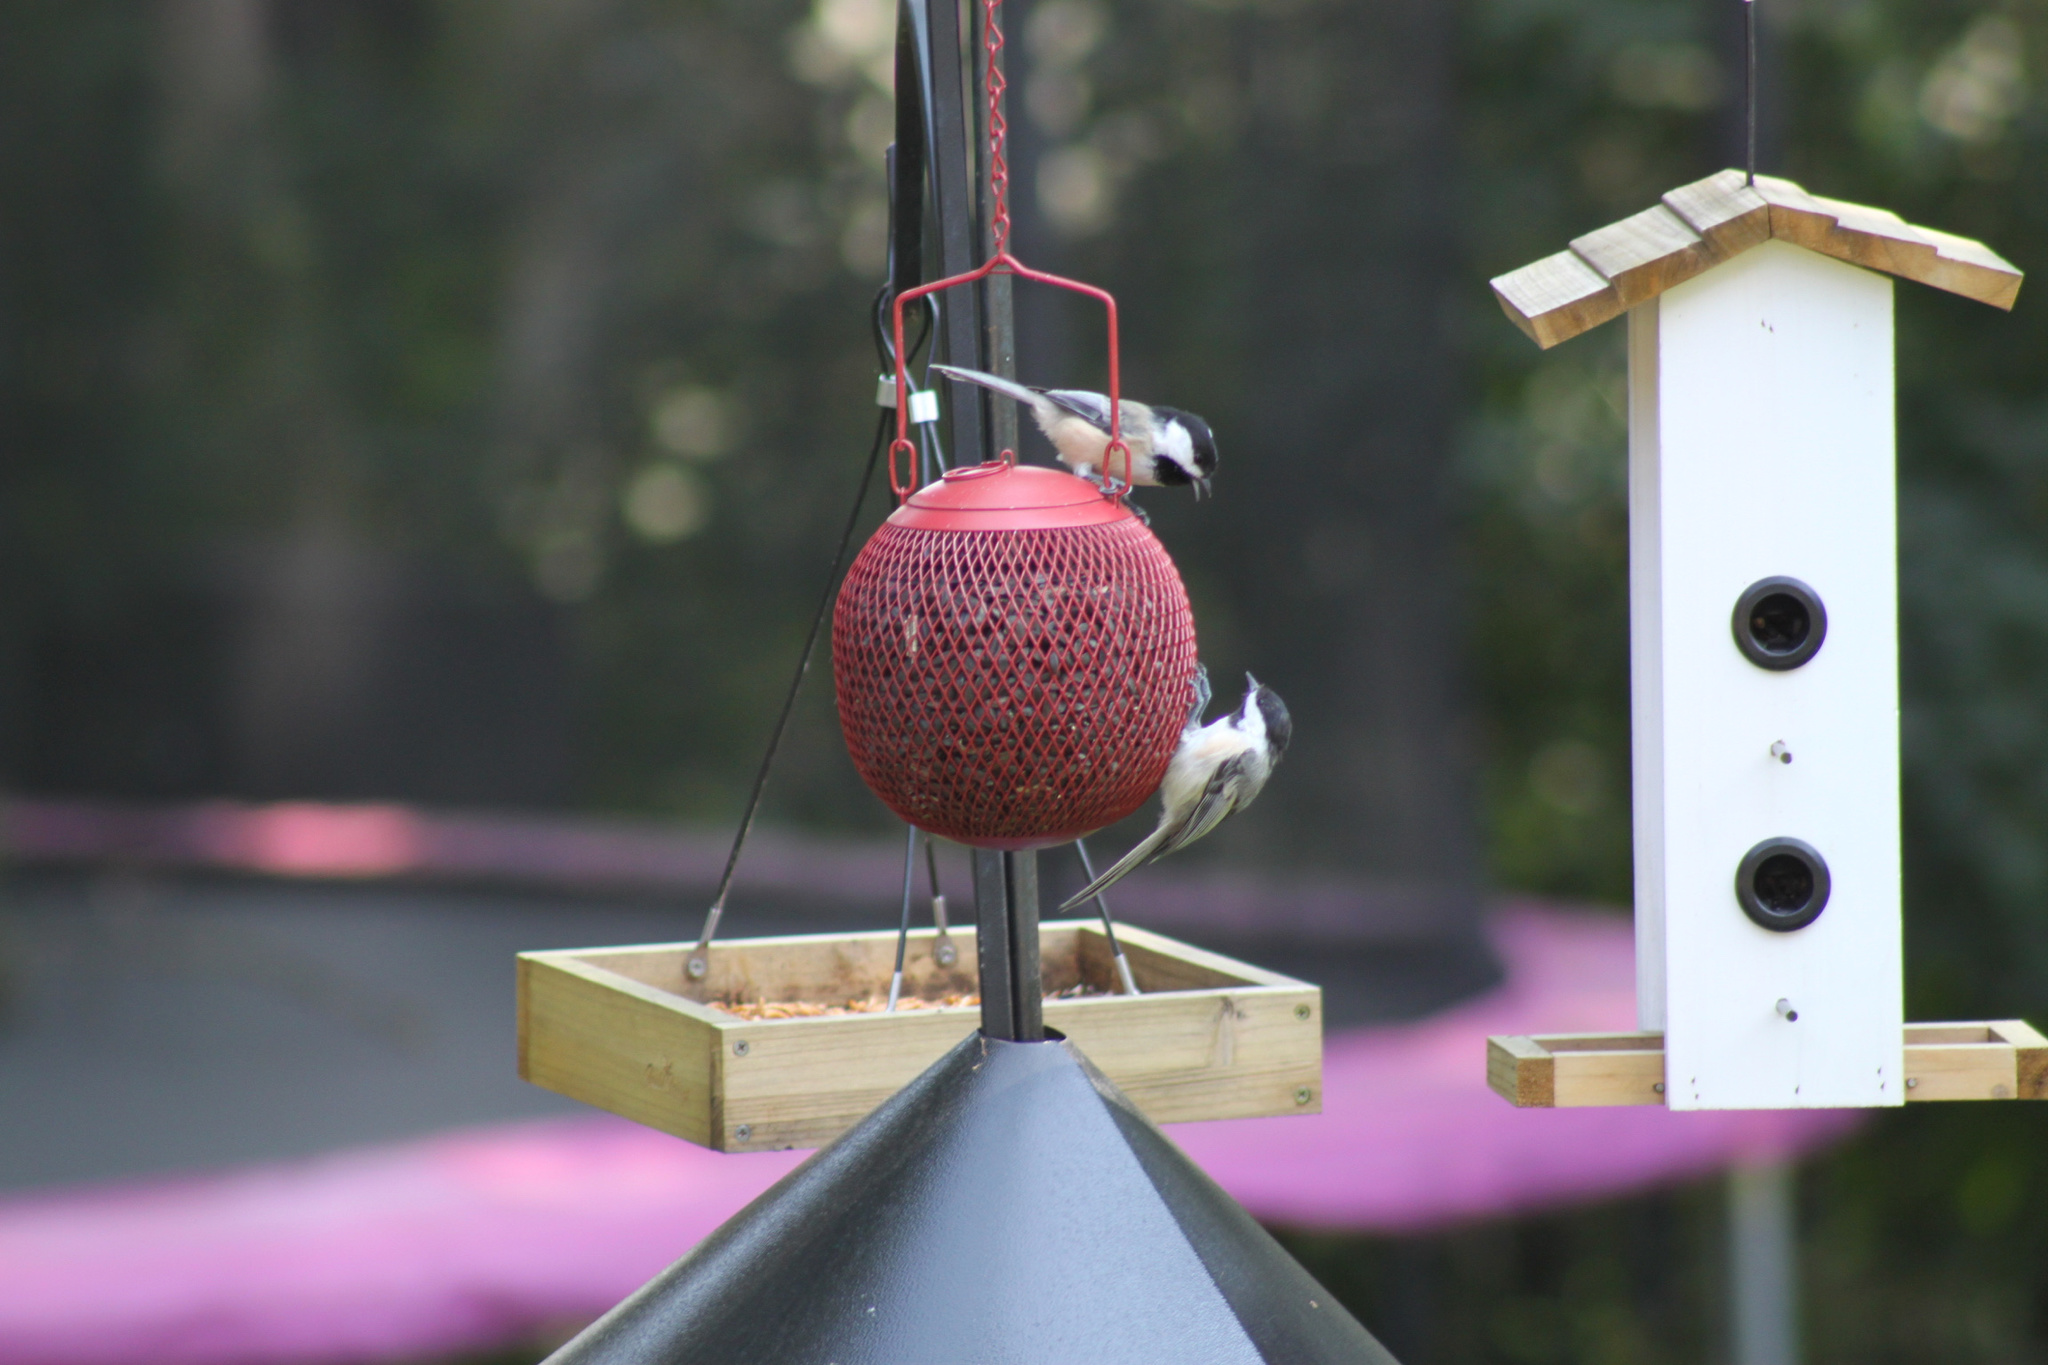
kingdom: Animalia
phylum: Chordata
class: Aves
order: Passeriformes
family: Paridae
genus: Poecile
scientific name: Poecile atricapillus
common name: Black-capped chickadee
